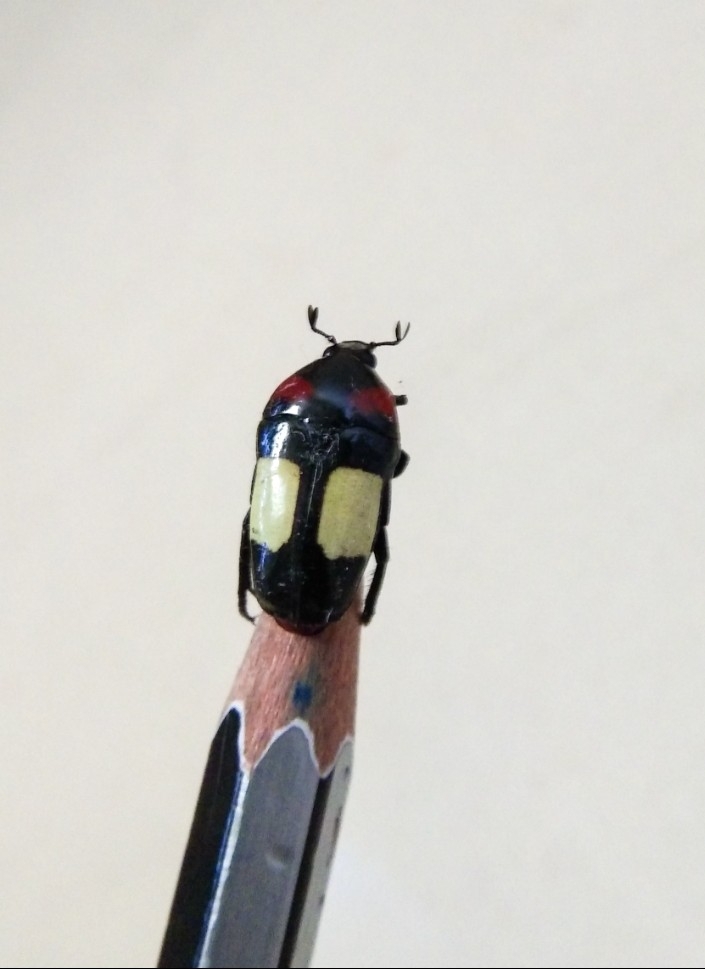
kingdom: Animalia
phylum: Arthropoda
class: Insecta
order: Coleoptera
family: Scarabaeidae
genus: Dicheros
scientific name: Dicheros bimacula
